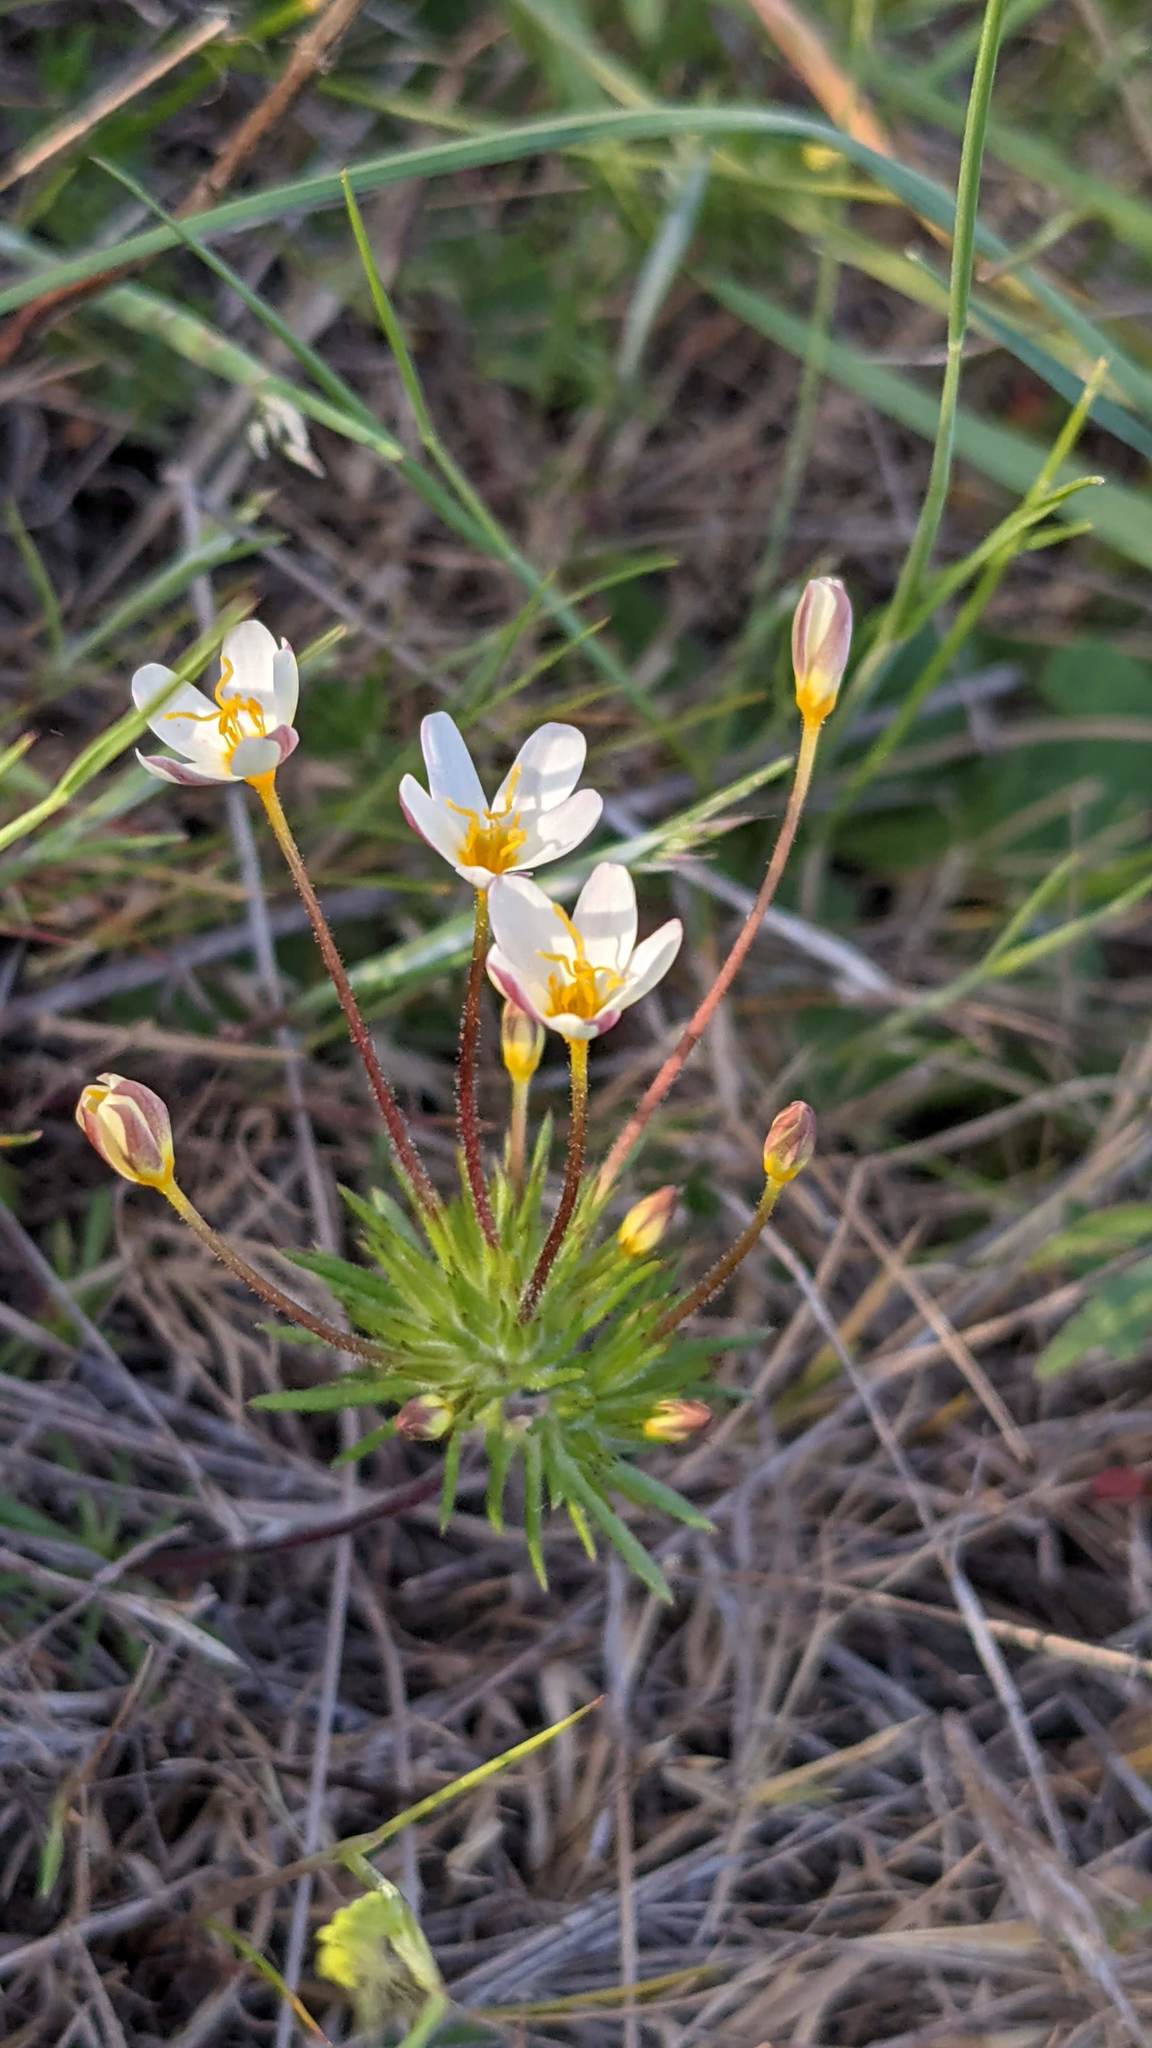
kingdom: Plantae
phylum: Tracheophyta
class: Magnoliopsida
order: Ericales
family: Polemoniaceae
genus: Leptosiphon
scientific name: Leptosiphon parviflorus
